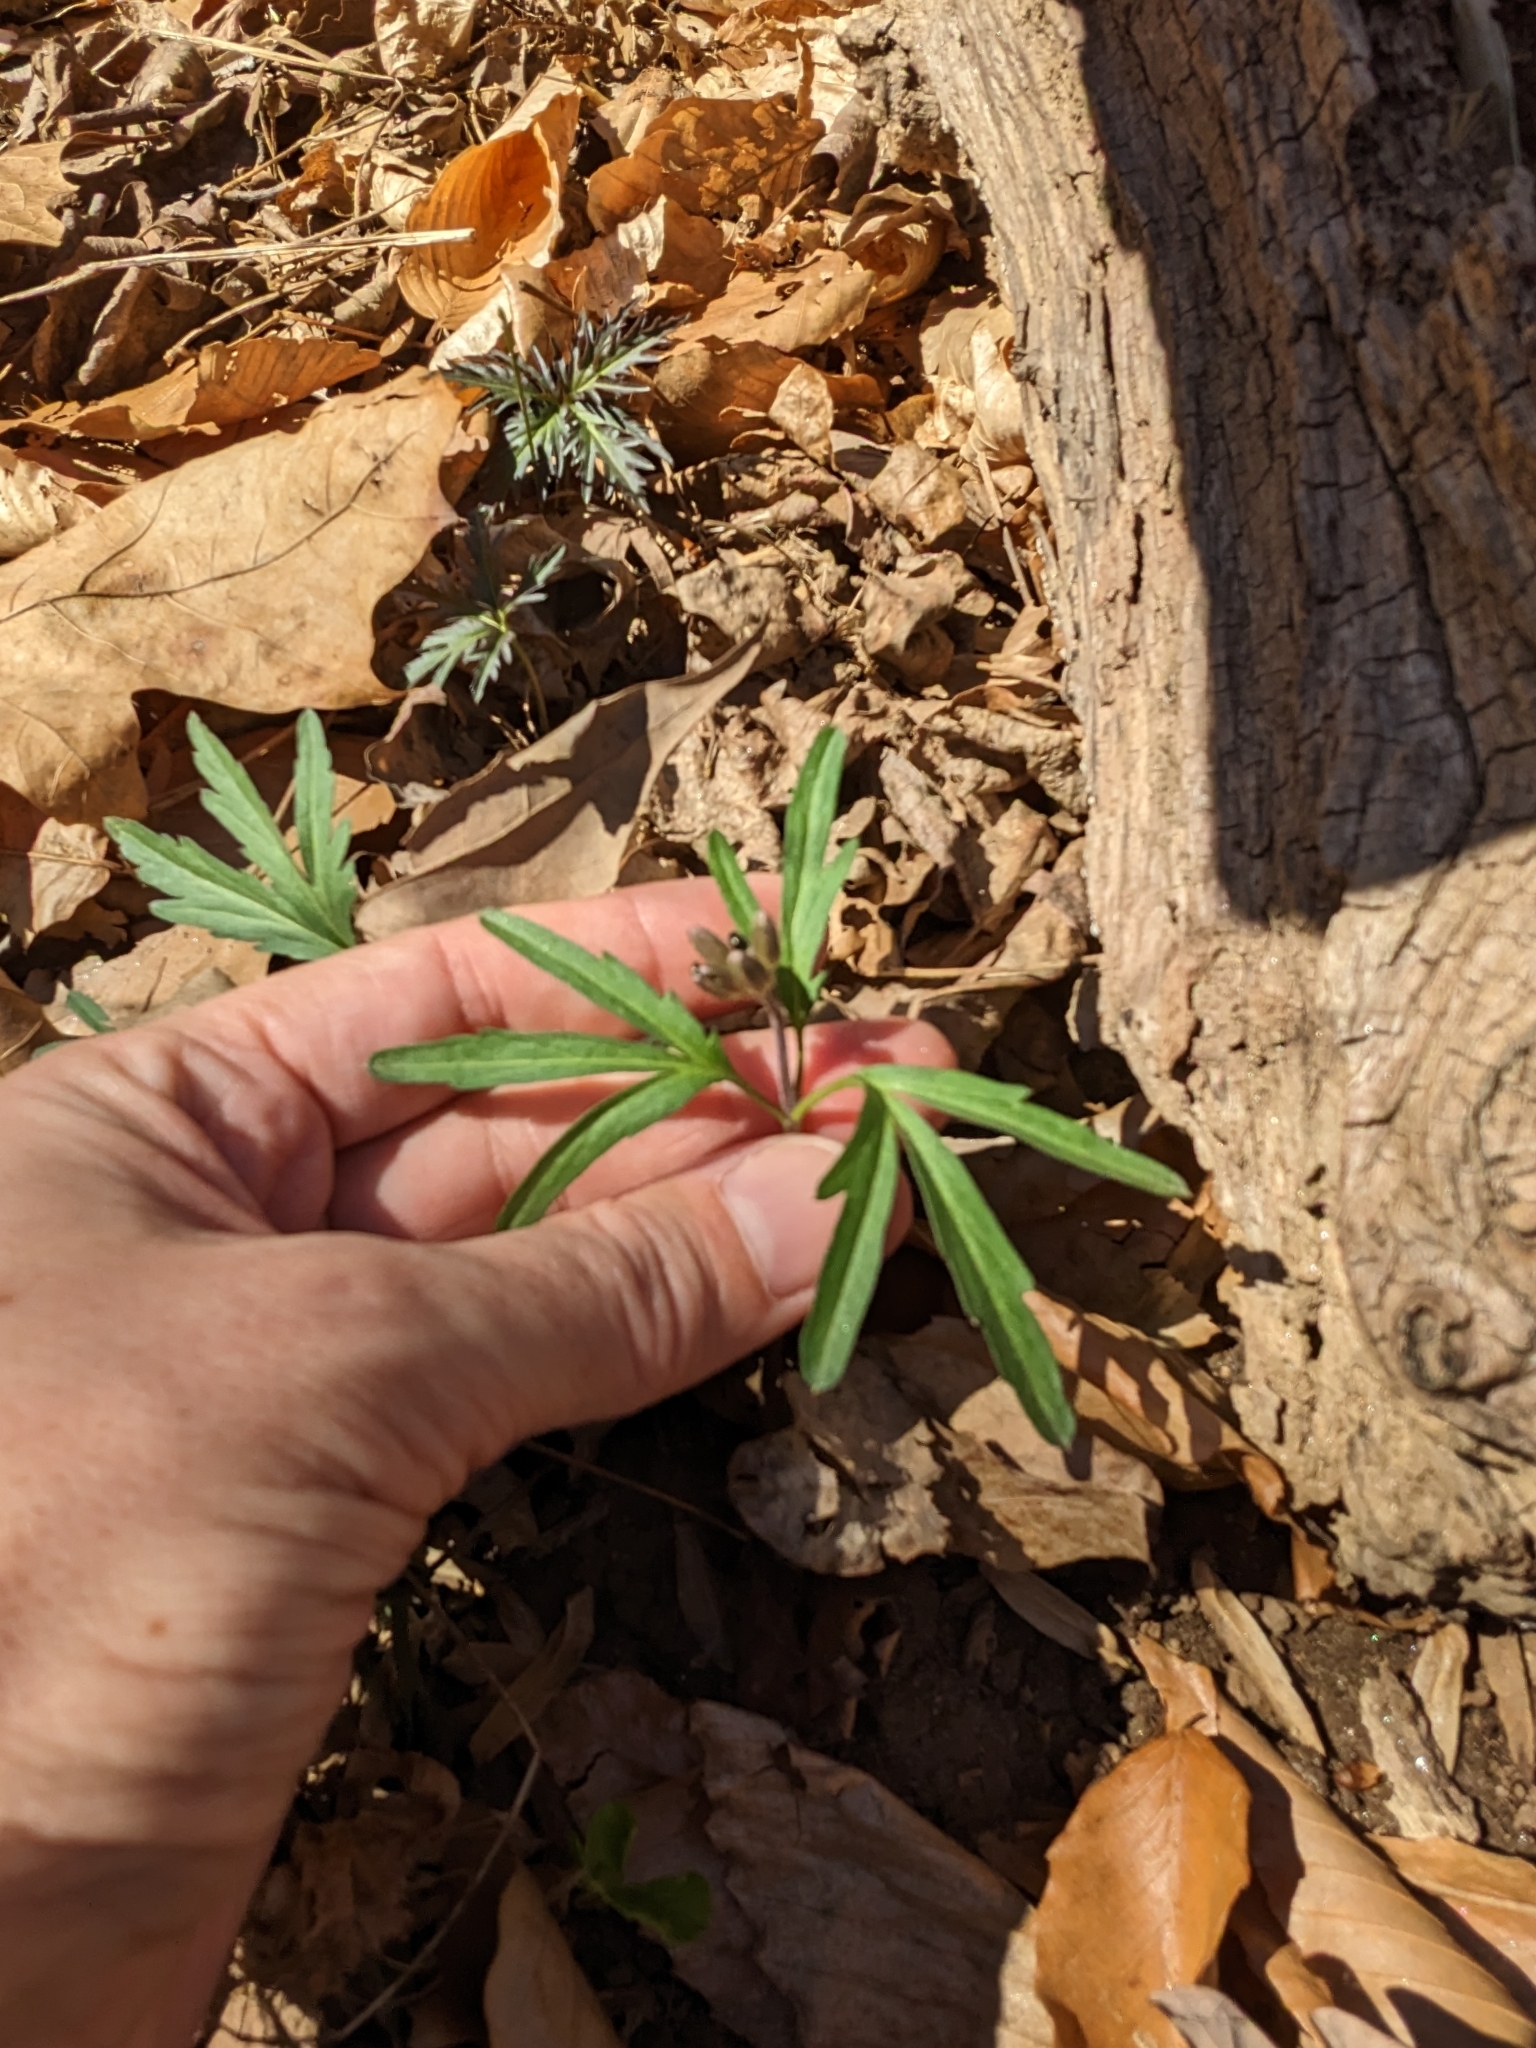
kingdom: Plantae
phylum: Tracheophyta
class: Magnoliopsida
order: Brassicales
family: Brassicaceae
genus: Cardamine
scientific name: Cardamine concatenata
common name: Cut-leaf toothcup
